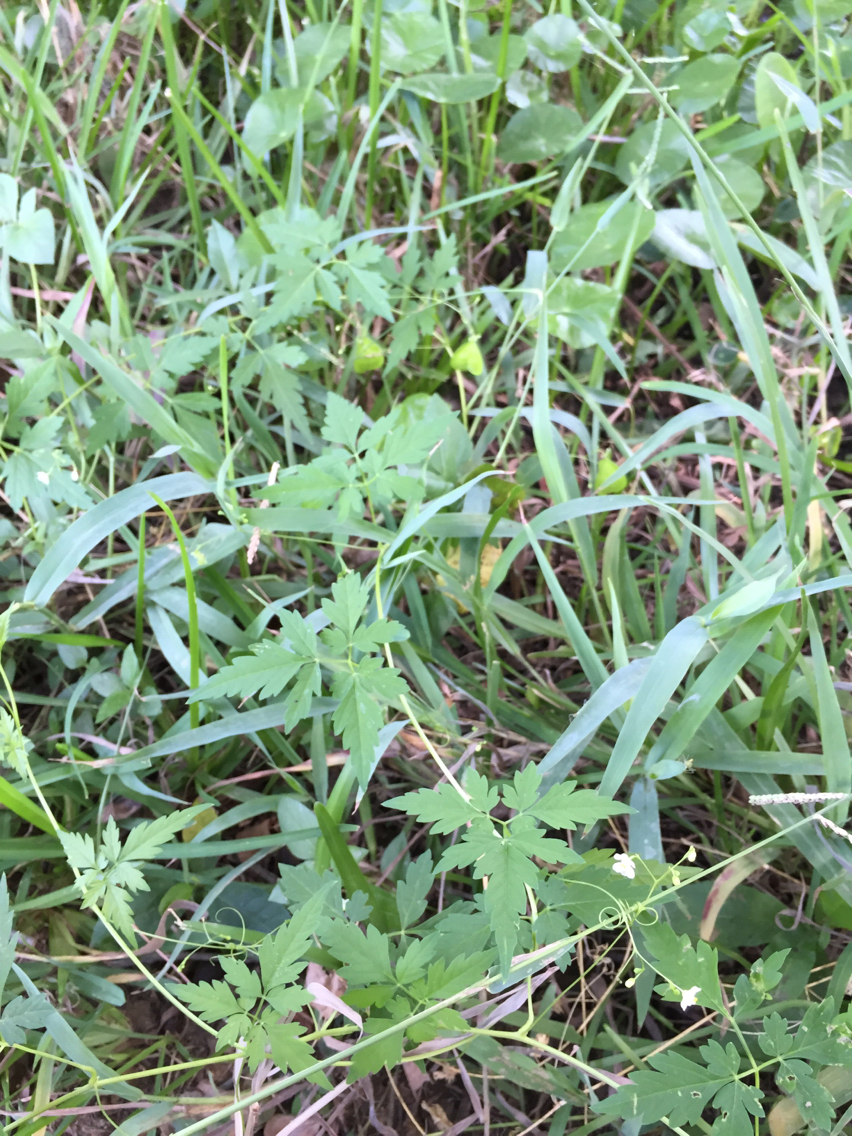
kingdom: Plantae
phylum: Tracheophyta
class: Magnoliopsida
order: Sapindales
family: Sapindaceae
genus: Cardiospermum
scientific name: Cardiospermum halicacabum
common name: Balloon vine
